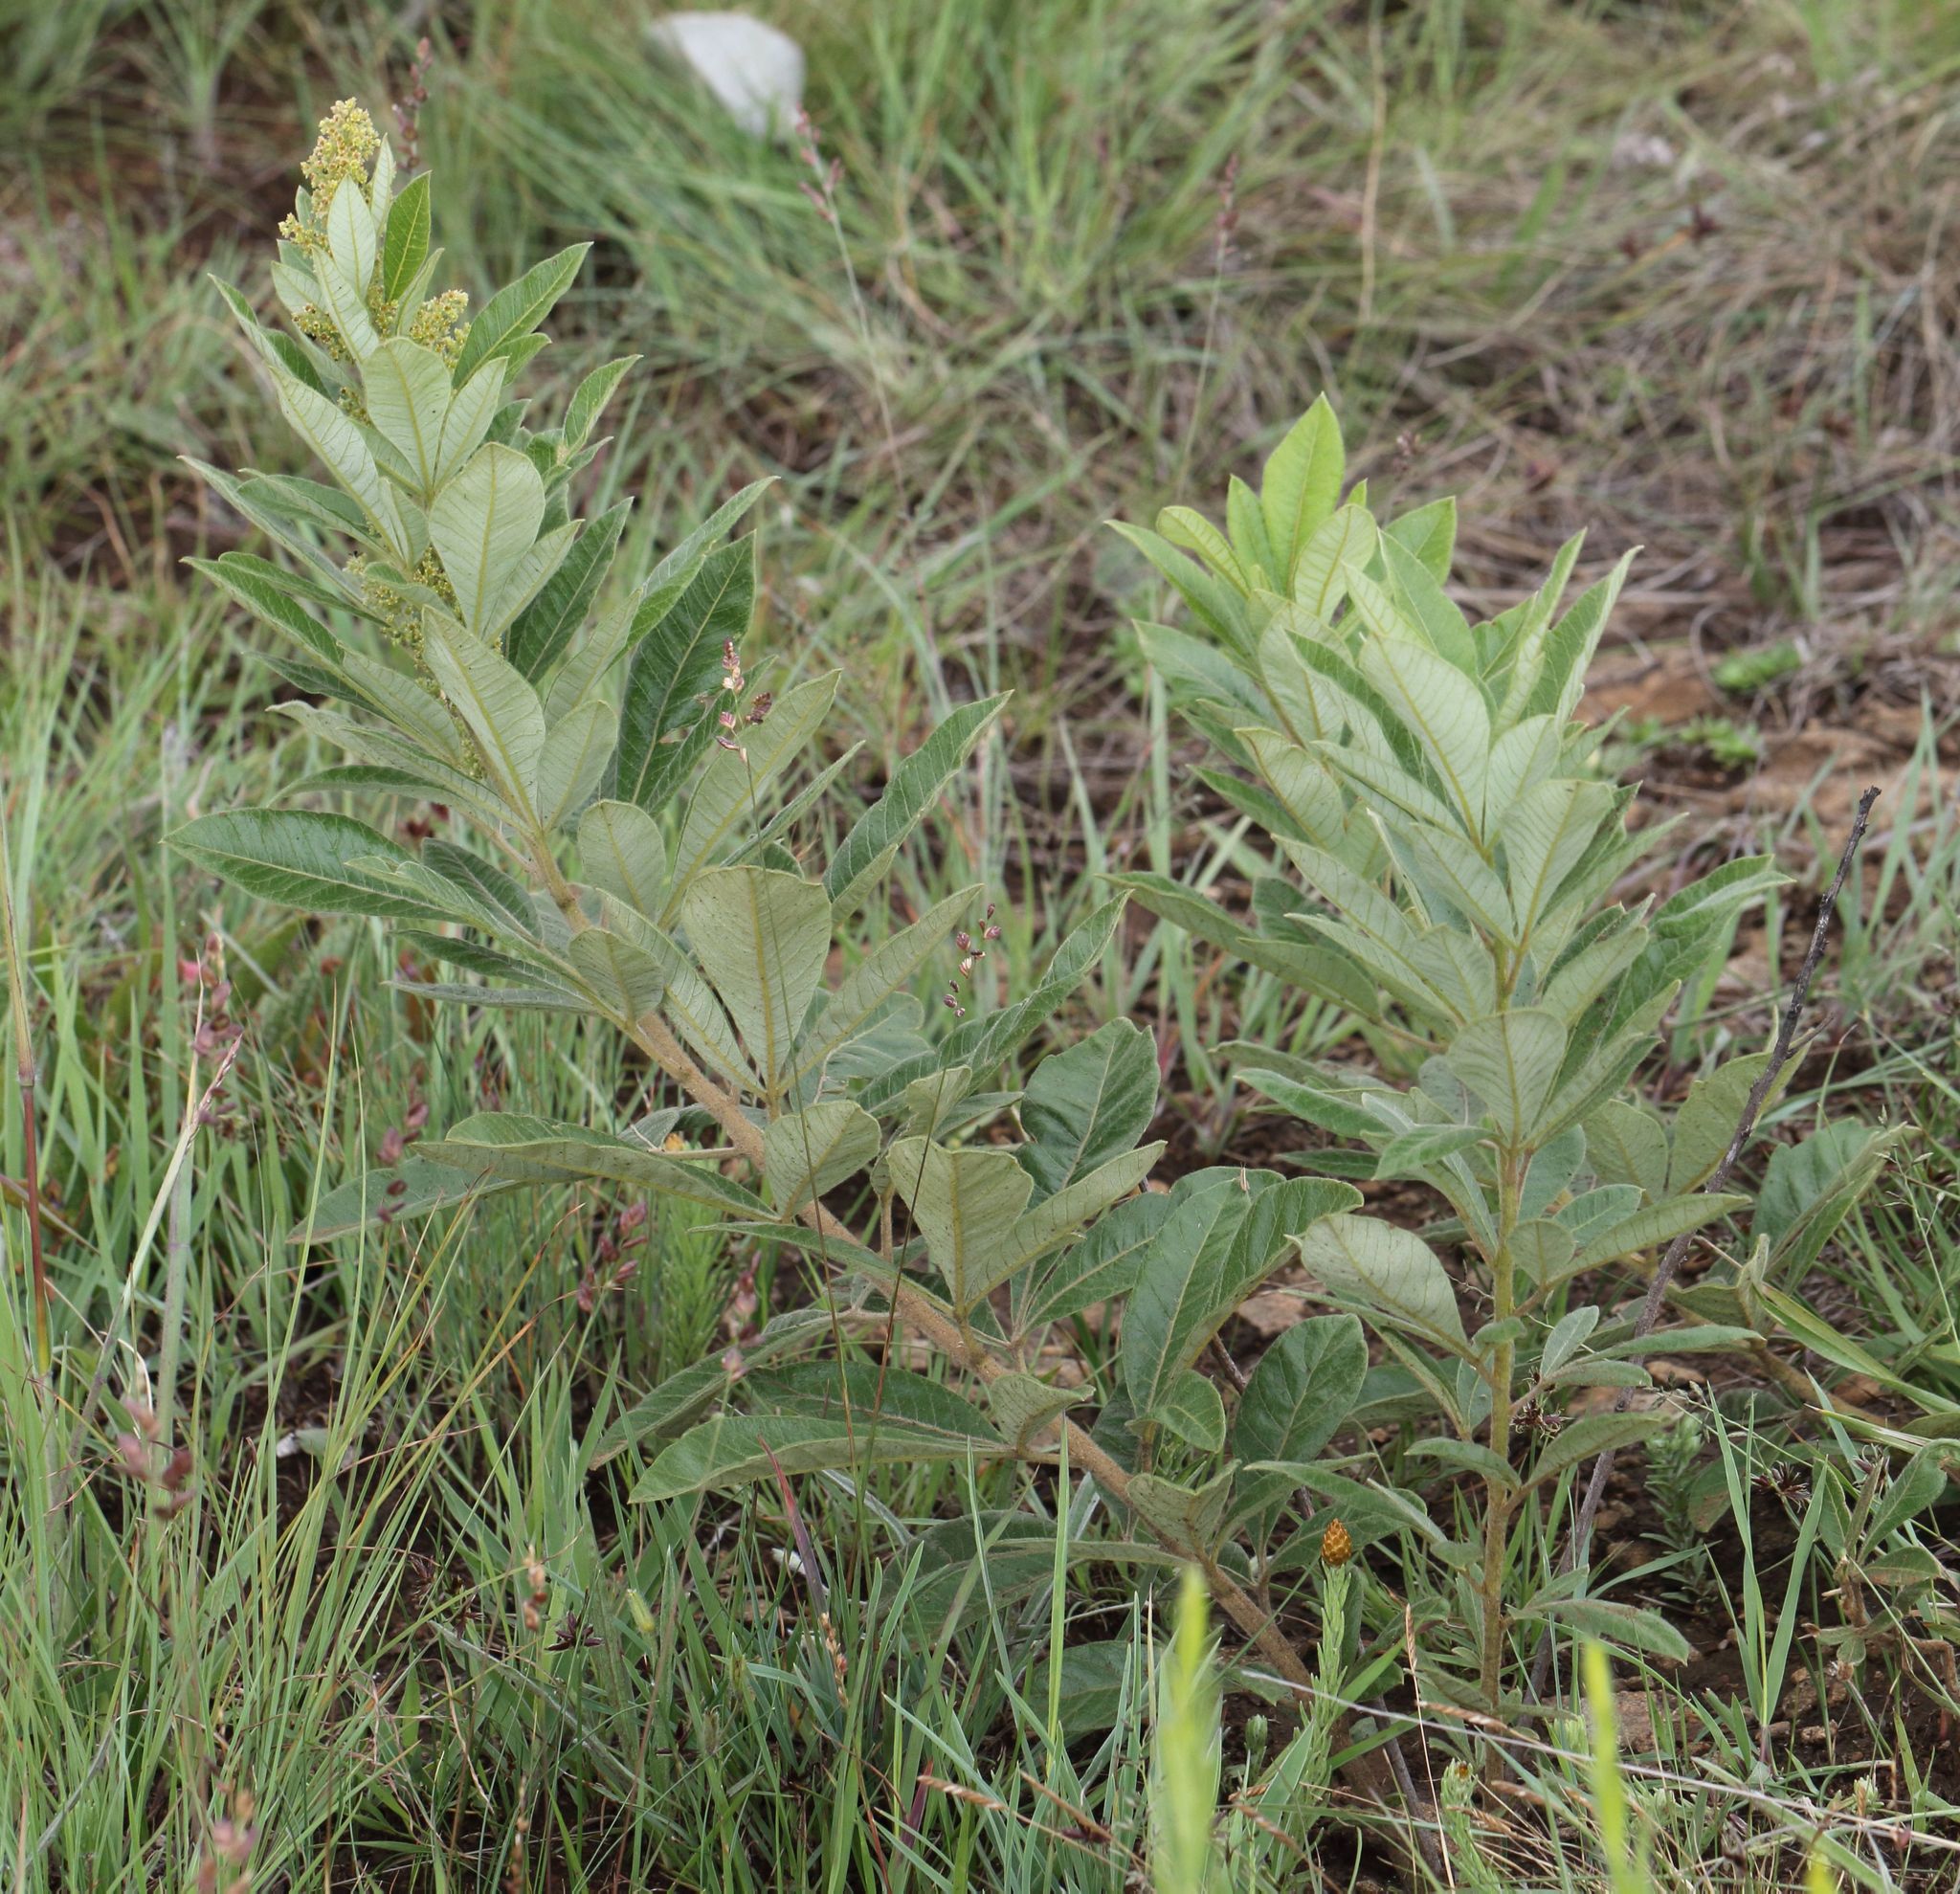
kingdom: Plantae
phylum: Tracheophyta
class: Magnoliopsida
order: Sapindales
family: Anacardiaceae
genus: Searsia
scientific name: Searsia discolor
